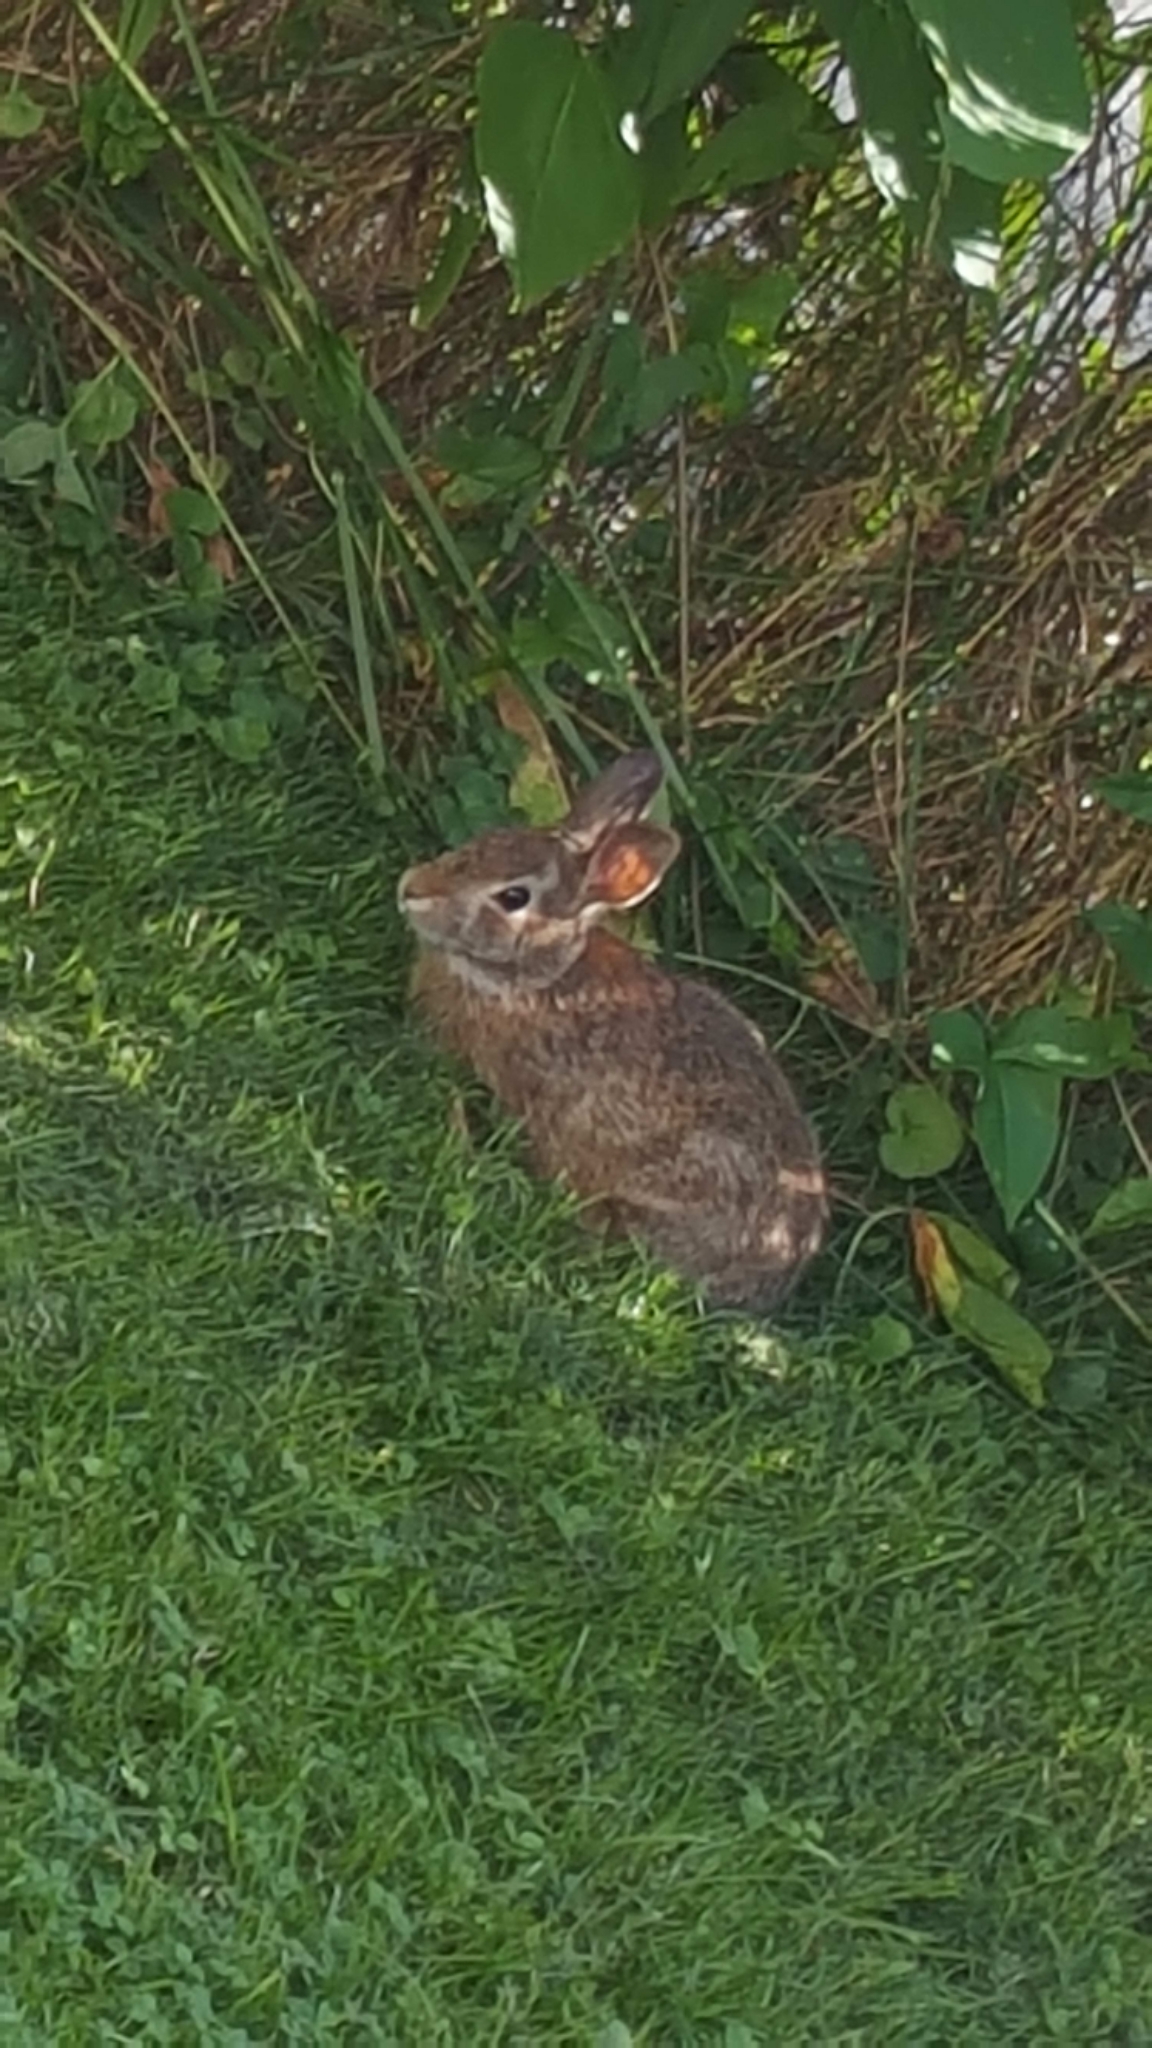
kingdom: Animalia
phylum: Chordata
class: Mammalia
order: Lagomorpha
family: Leporidae
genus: Sylvilagus
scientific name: Sylvilagus floridanus
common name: Eastern cottontail
